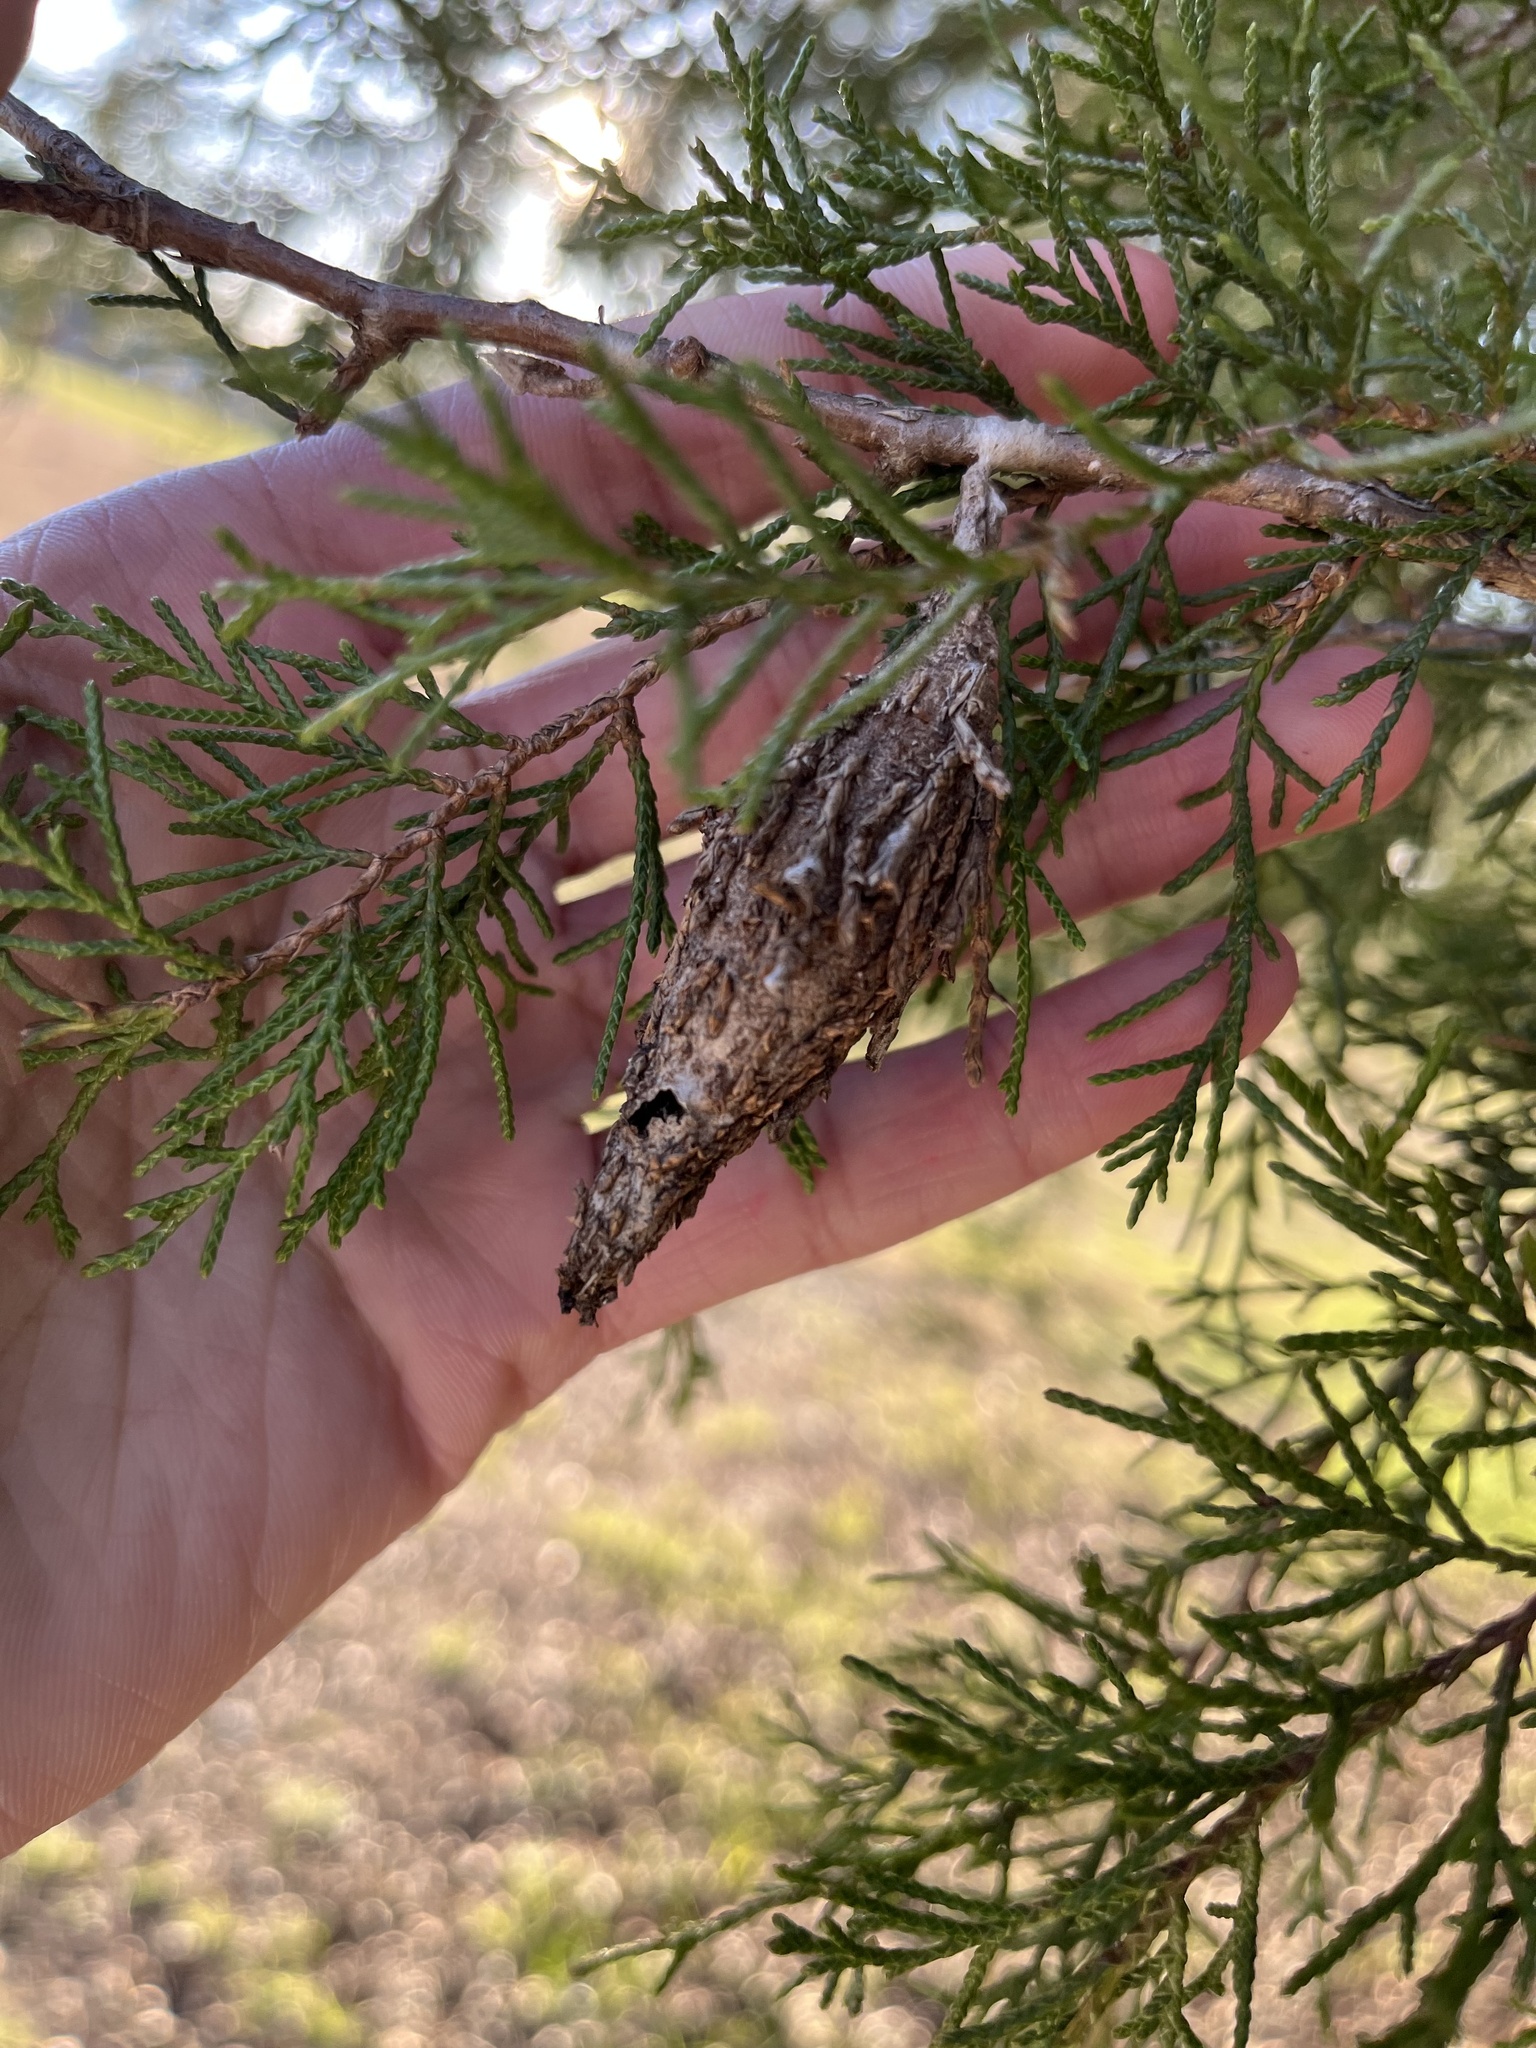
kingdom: Animalia
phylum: Arthropoda
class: Insecta
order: Lepidoptera
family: Psychidae
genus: Thyridopteryx
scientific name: Thyridopteryx ephemeraeformis
